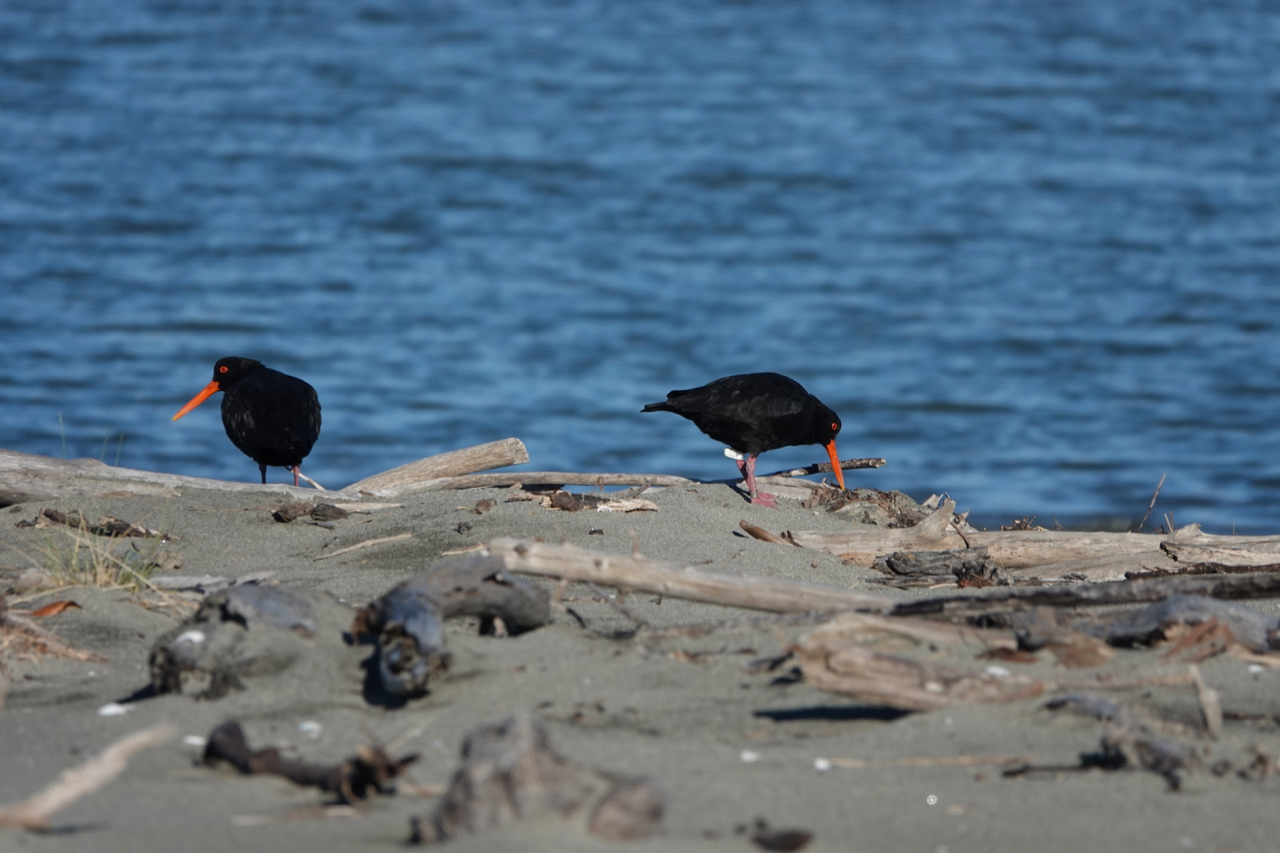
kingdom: Animalia
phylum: Chordata
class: Aves
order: Charadriiformes
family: Haematopodidae
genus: Haematopus
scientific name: Haematopus unicolor
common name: Variable oystercatcher
